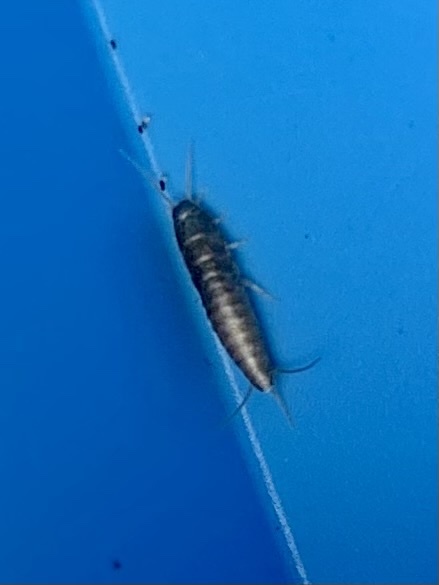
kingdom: Animalia
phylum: Arthropoda
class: Insecta
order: Zygentoma
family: Lepismatidae
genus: Lepisma
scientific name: Lepisma saccharinum
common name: Silverfish
